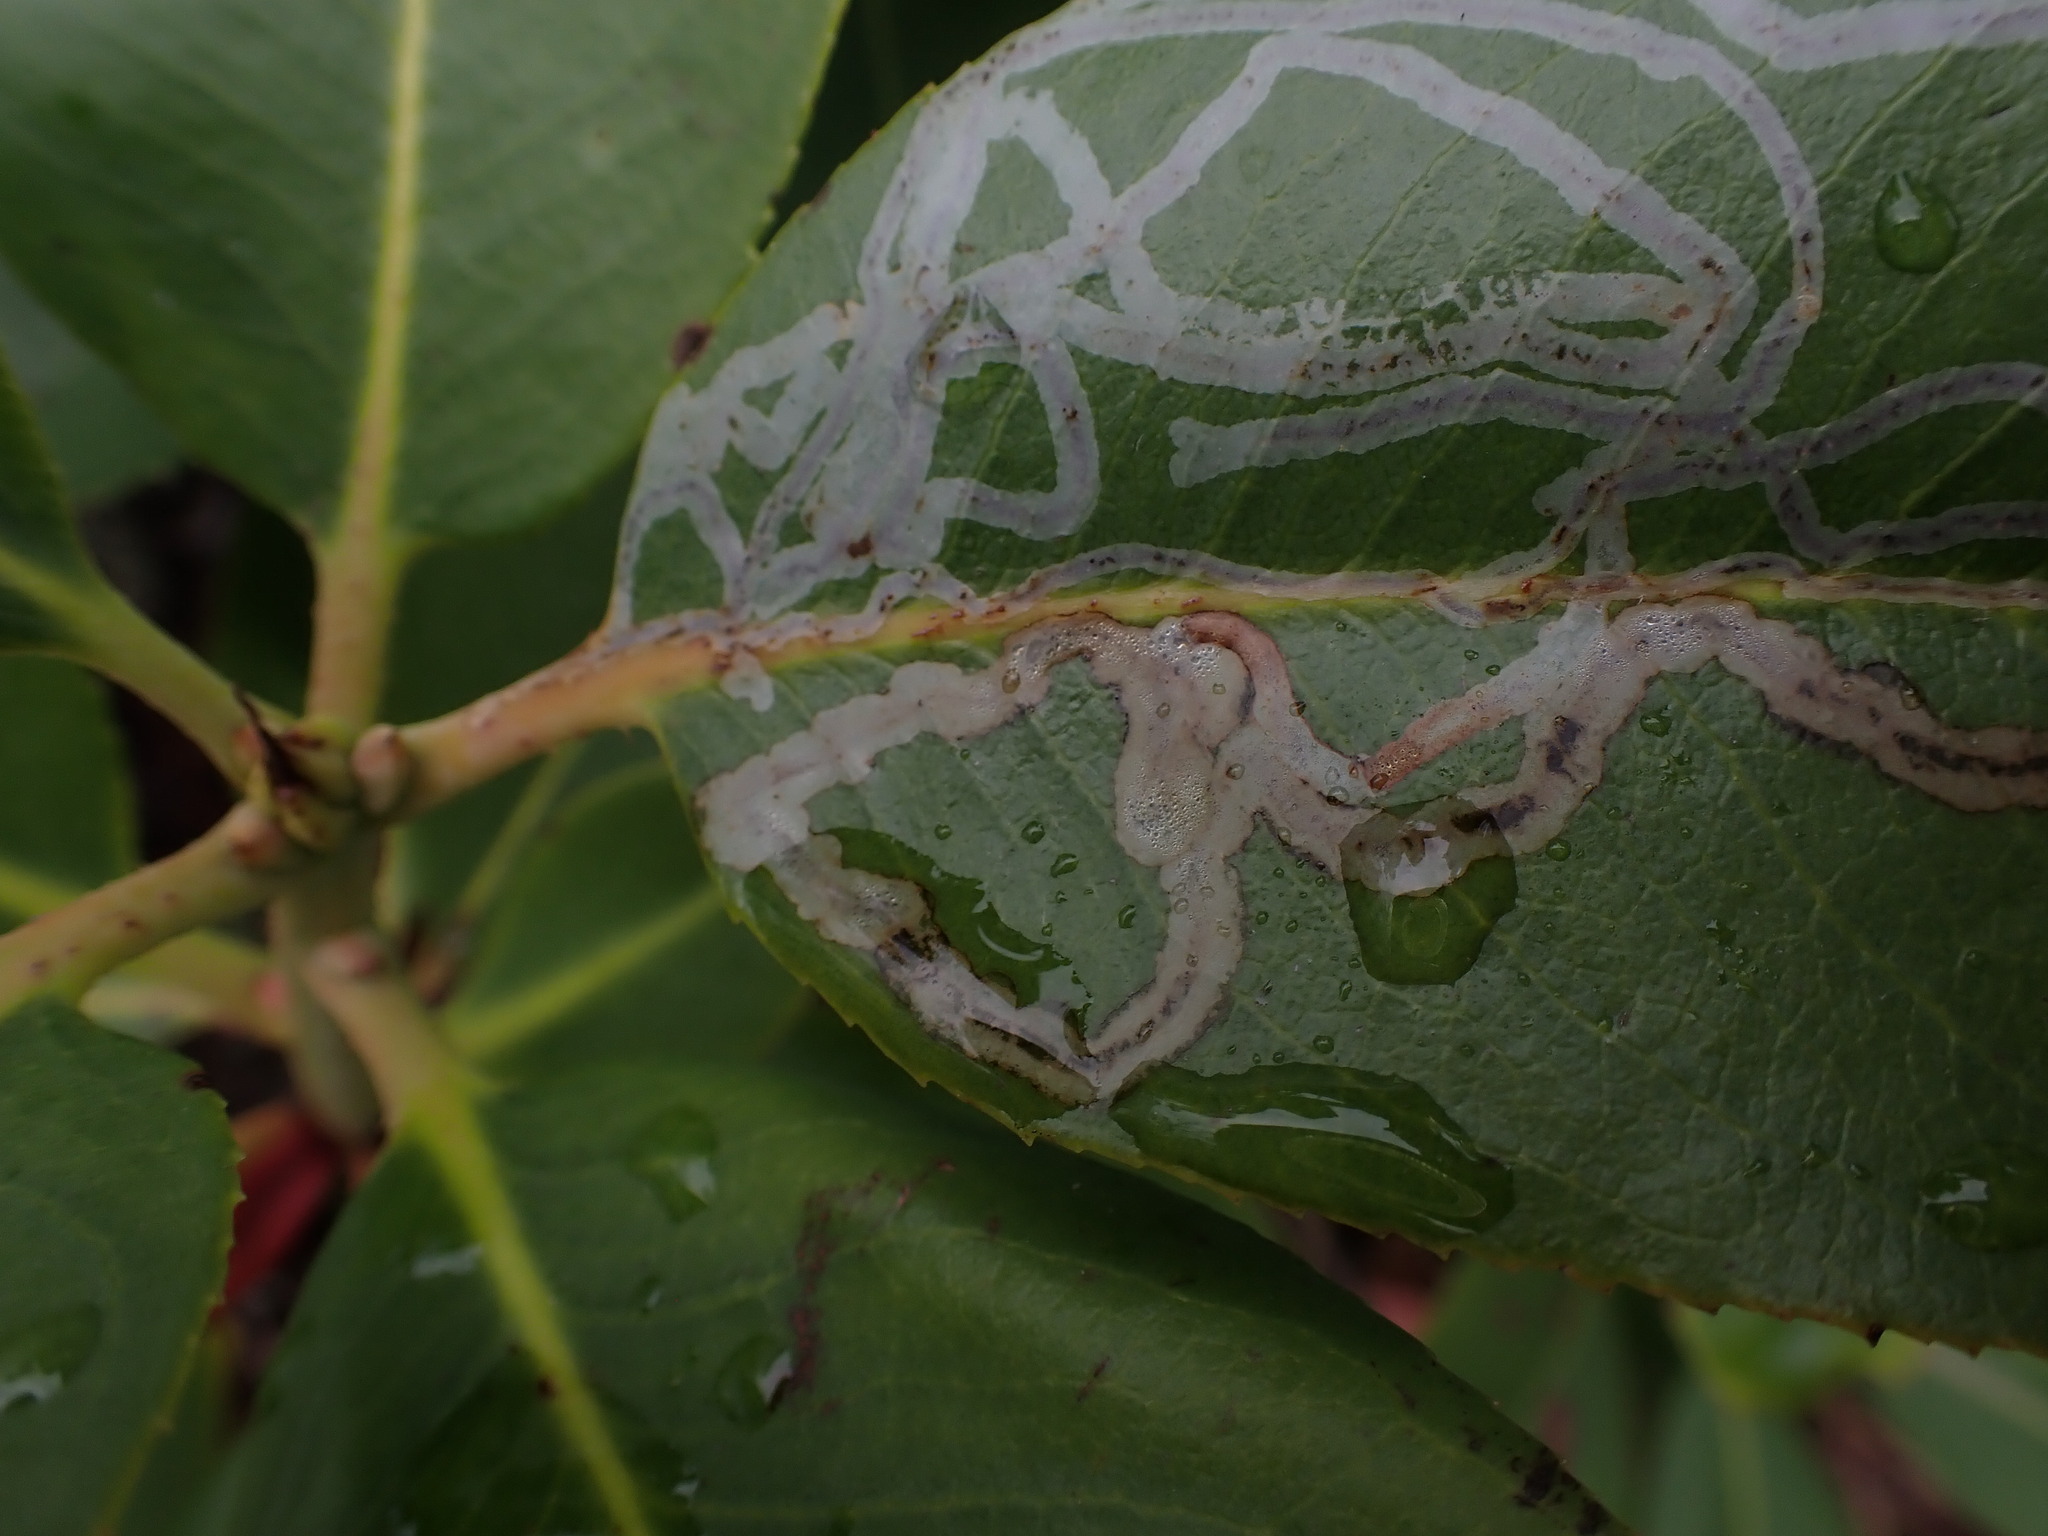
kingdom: Animalia
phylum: Arthropoda
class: Insecta
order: Lepidoptera
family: Gracillariidae
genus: Marmara
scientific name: Marmara arbutiella
